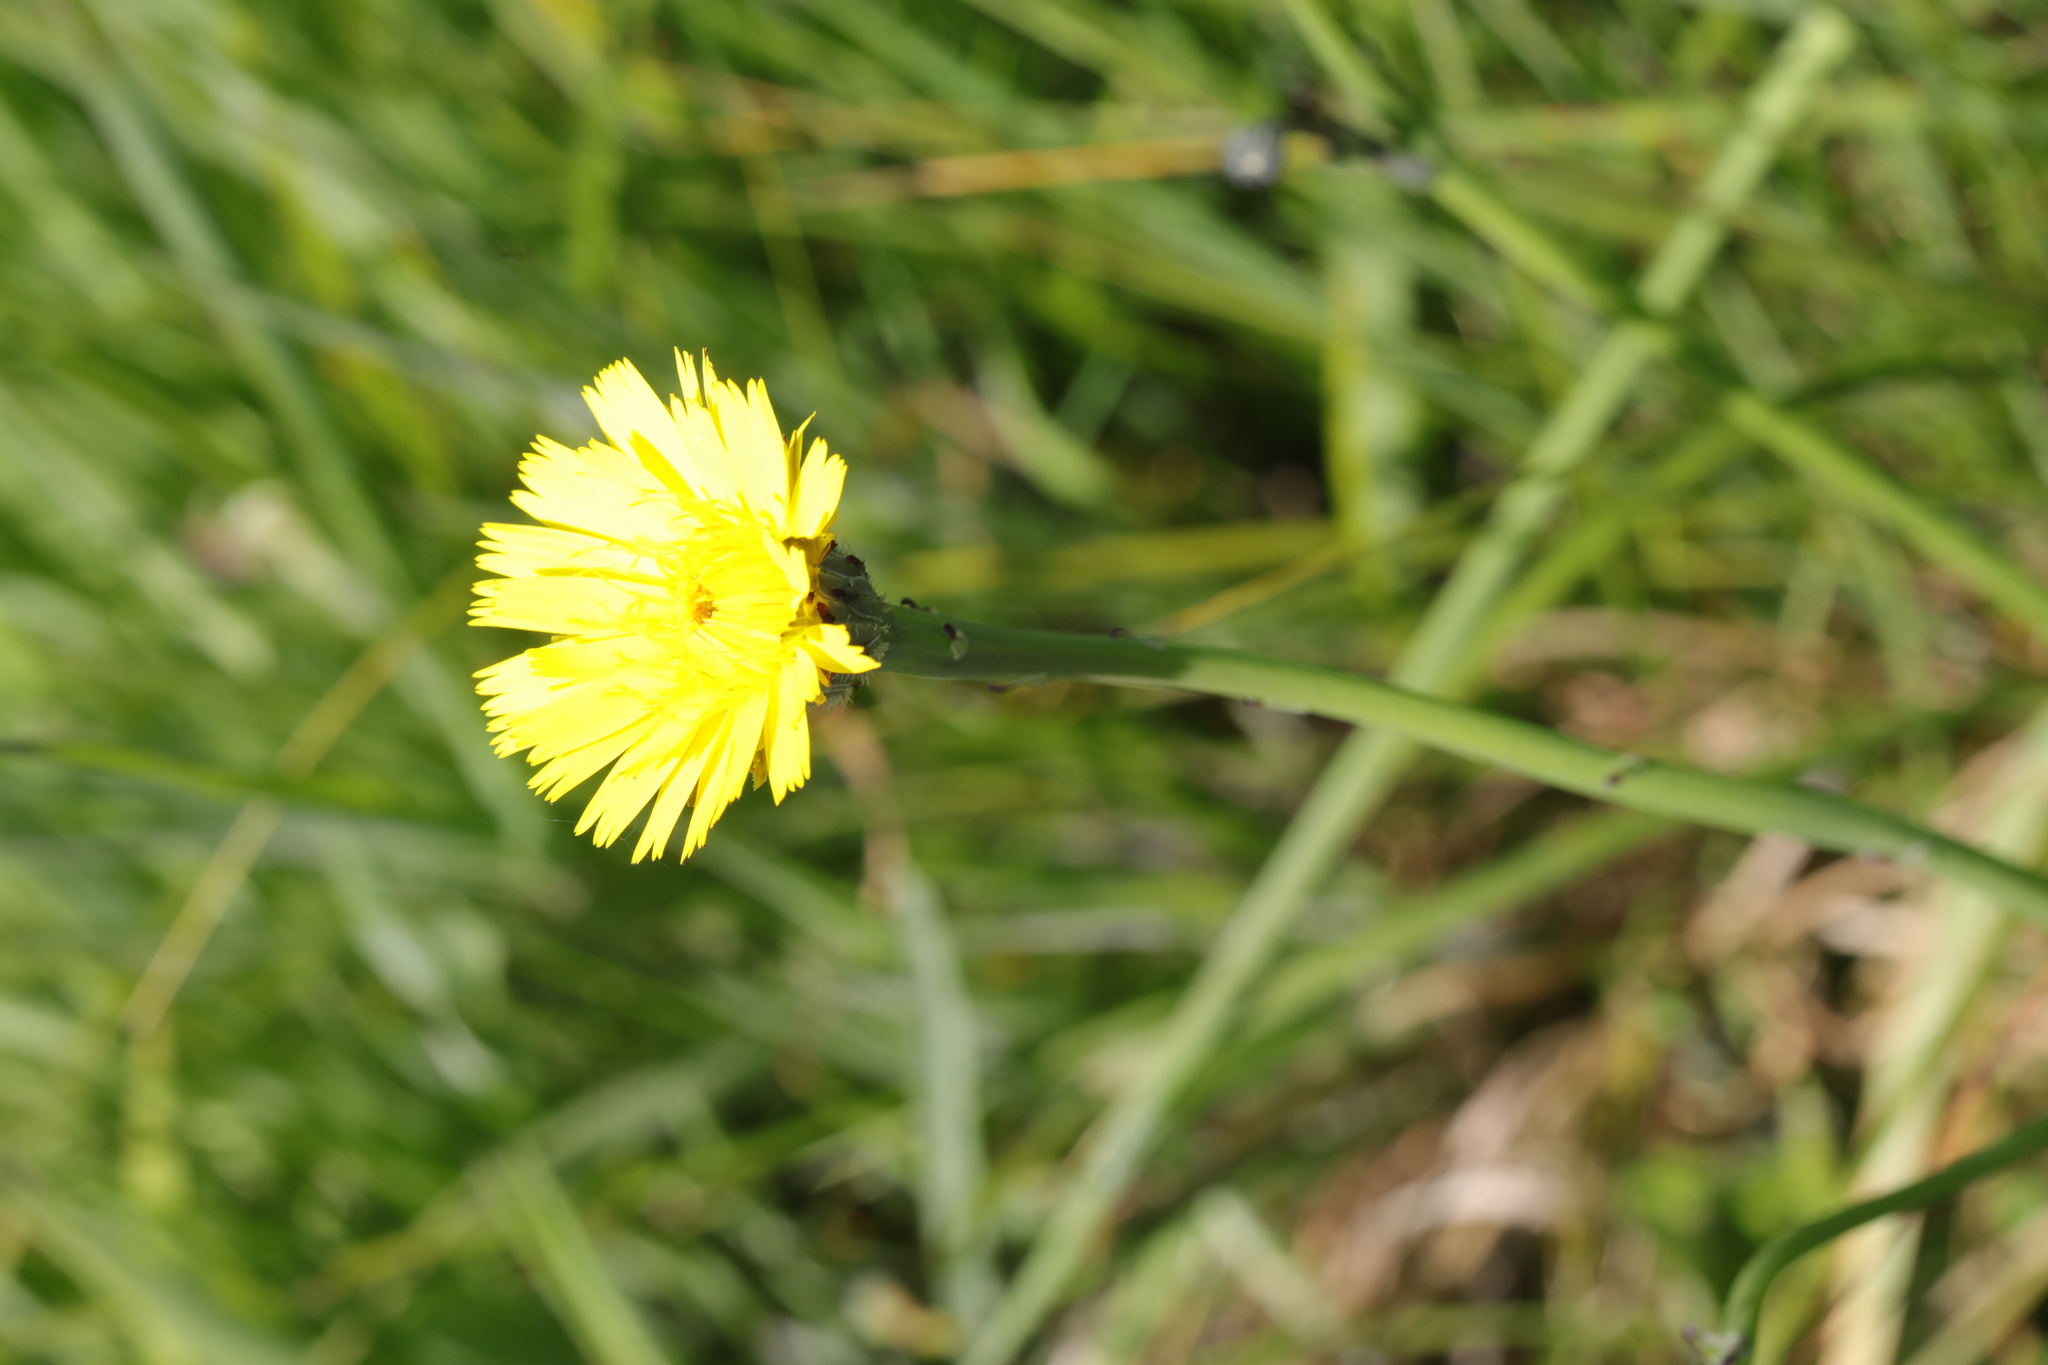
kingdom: Plantae
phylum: Tracheophyta
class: Magnoliopsida
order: Asterales
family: Asteraceae
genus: Hypochaeris
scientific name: Hypochaeris radicata
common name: Flatweed
